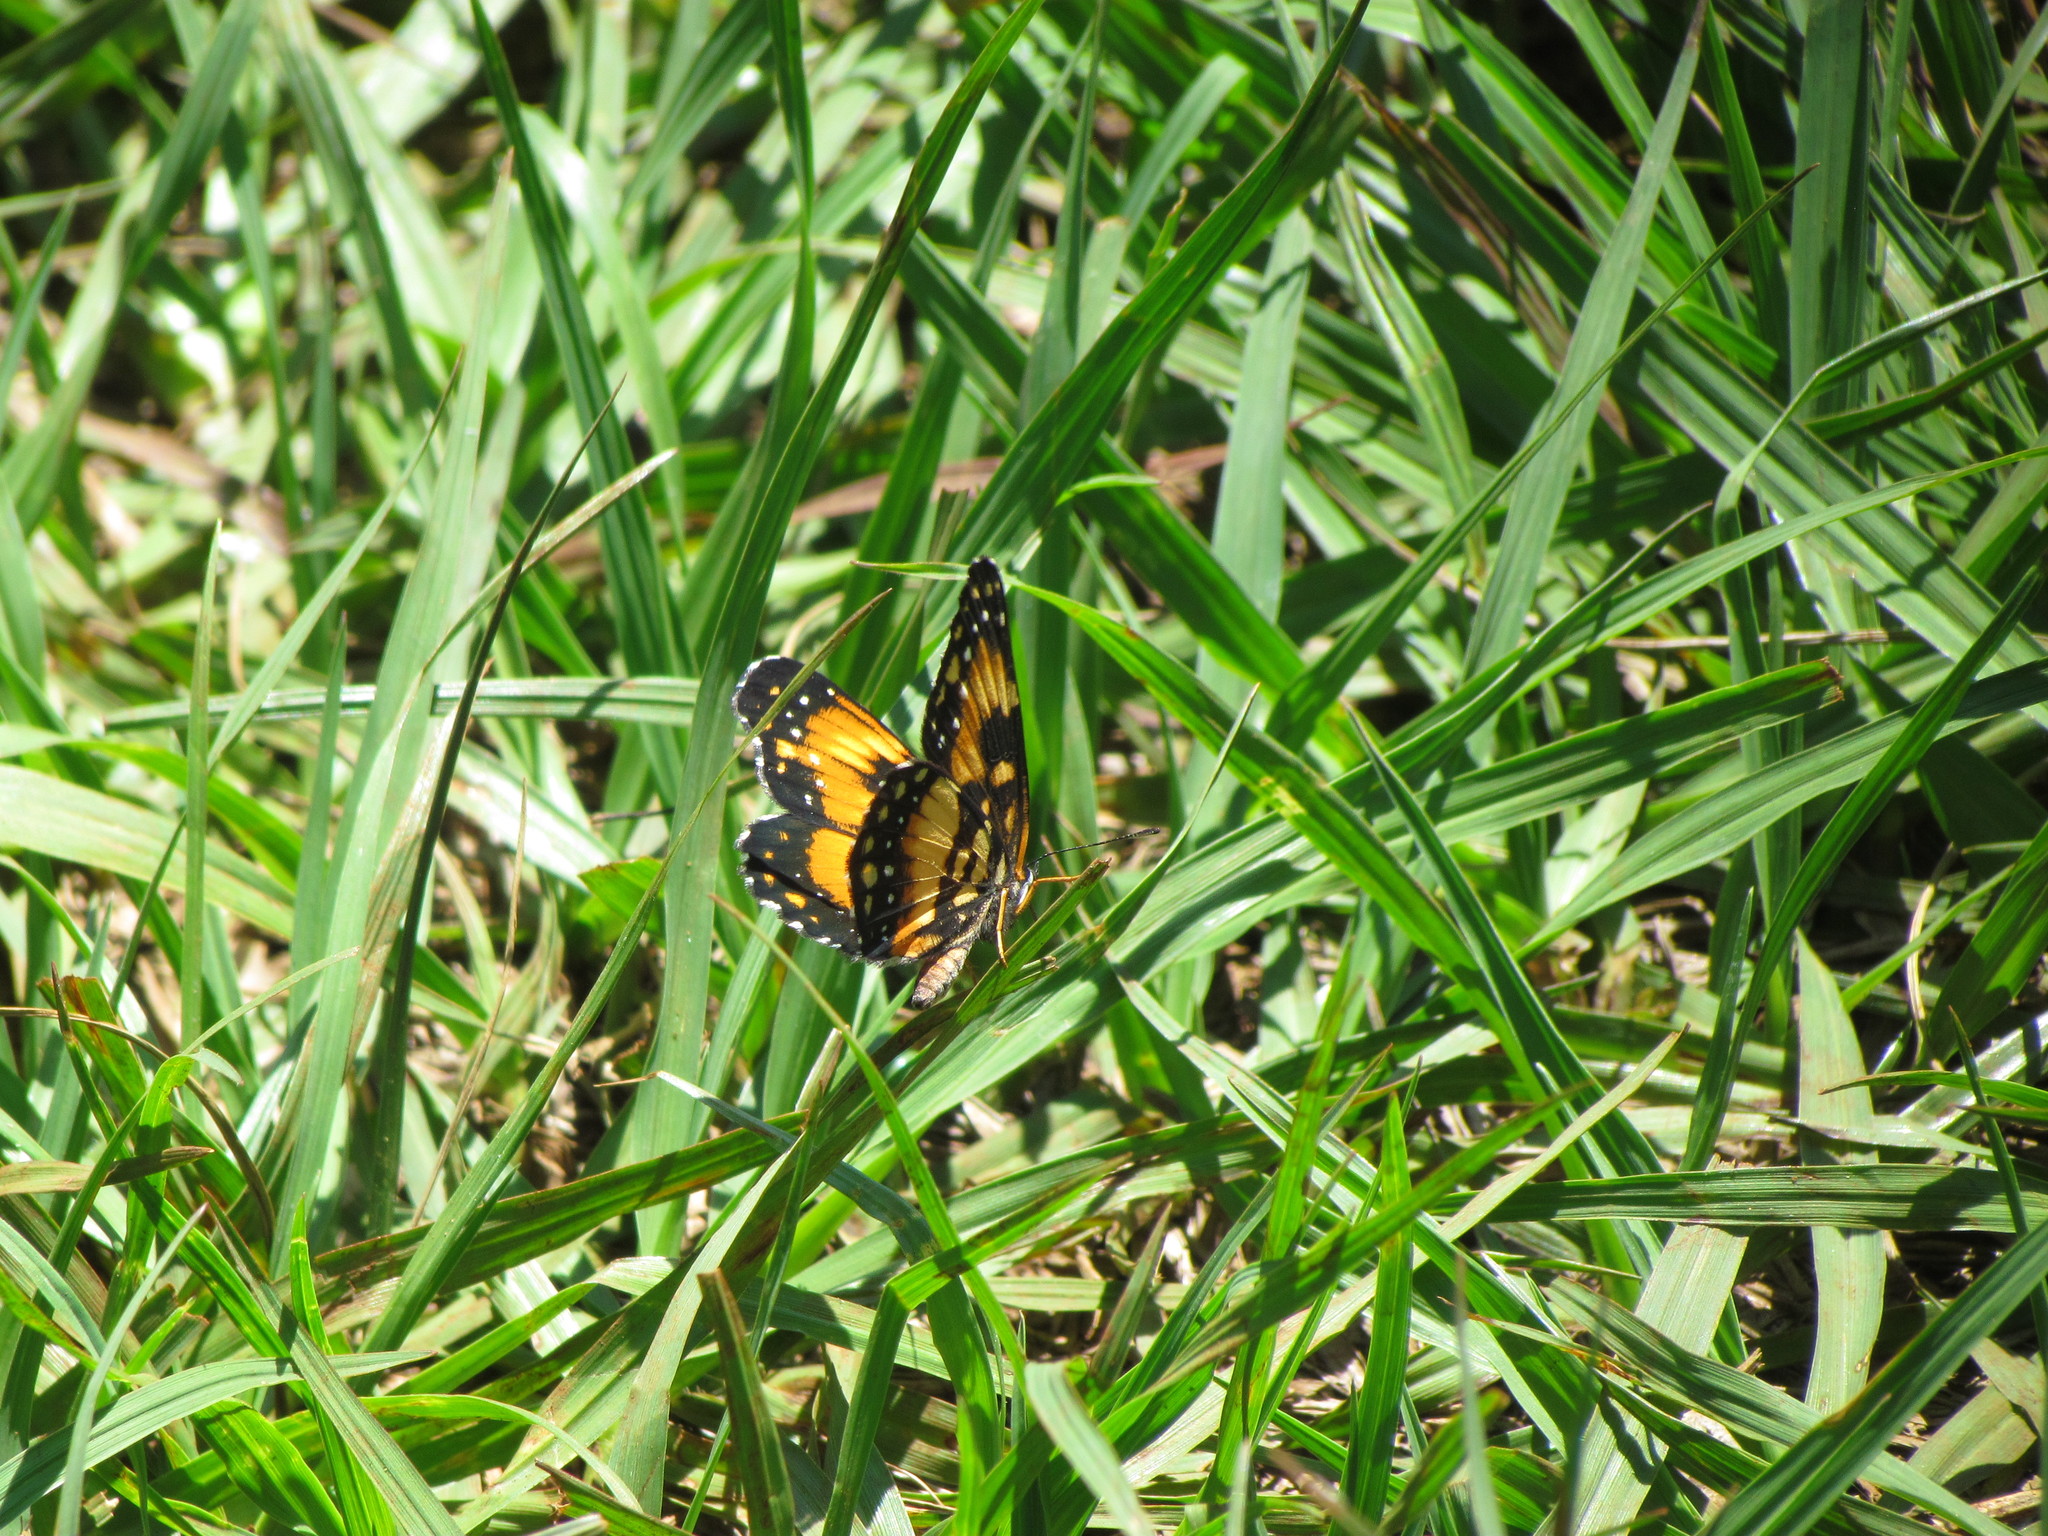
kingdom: Animalia
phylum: Arthropoda
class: Insecta
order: Lepidoptera
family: Nymphalidae
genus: Chlosyne
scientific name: Chlosyne lacinia
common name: Bordered patch
